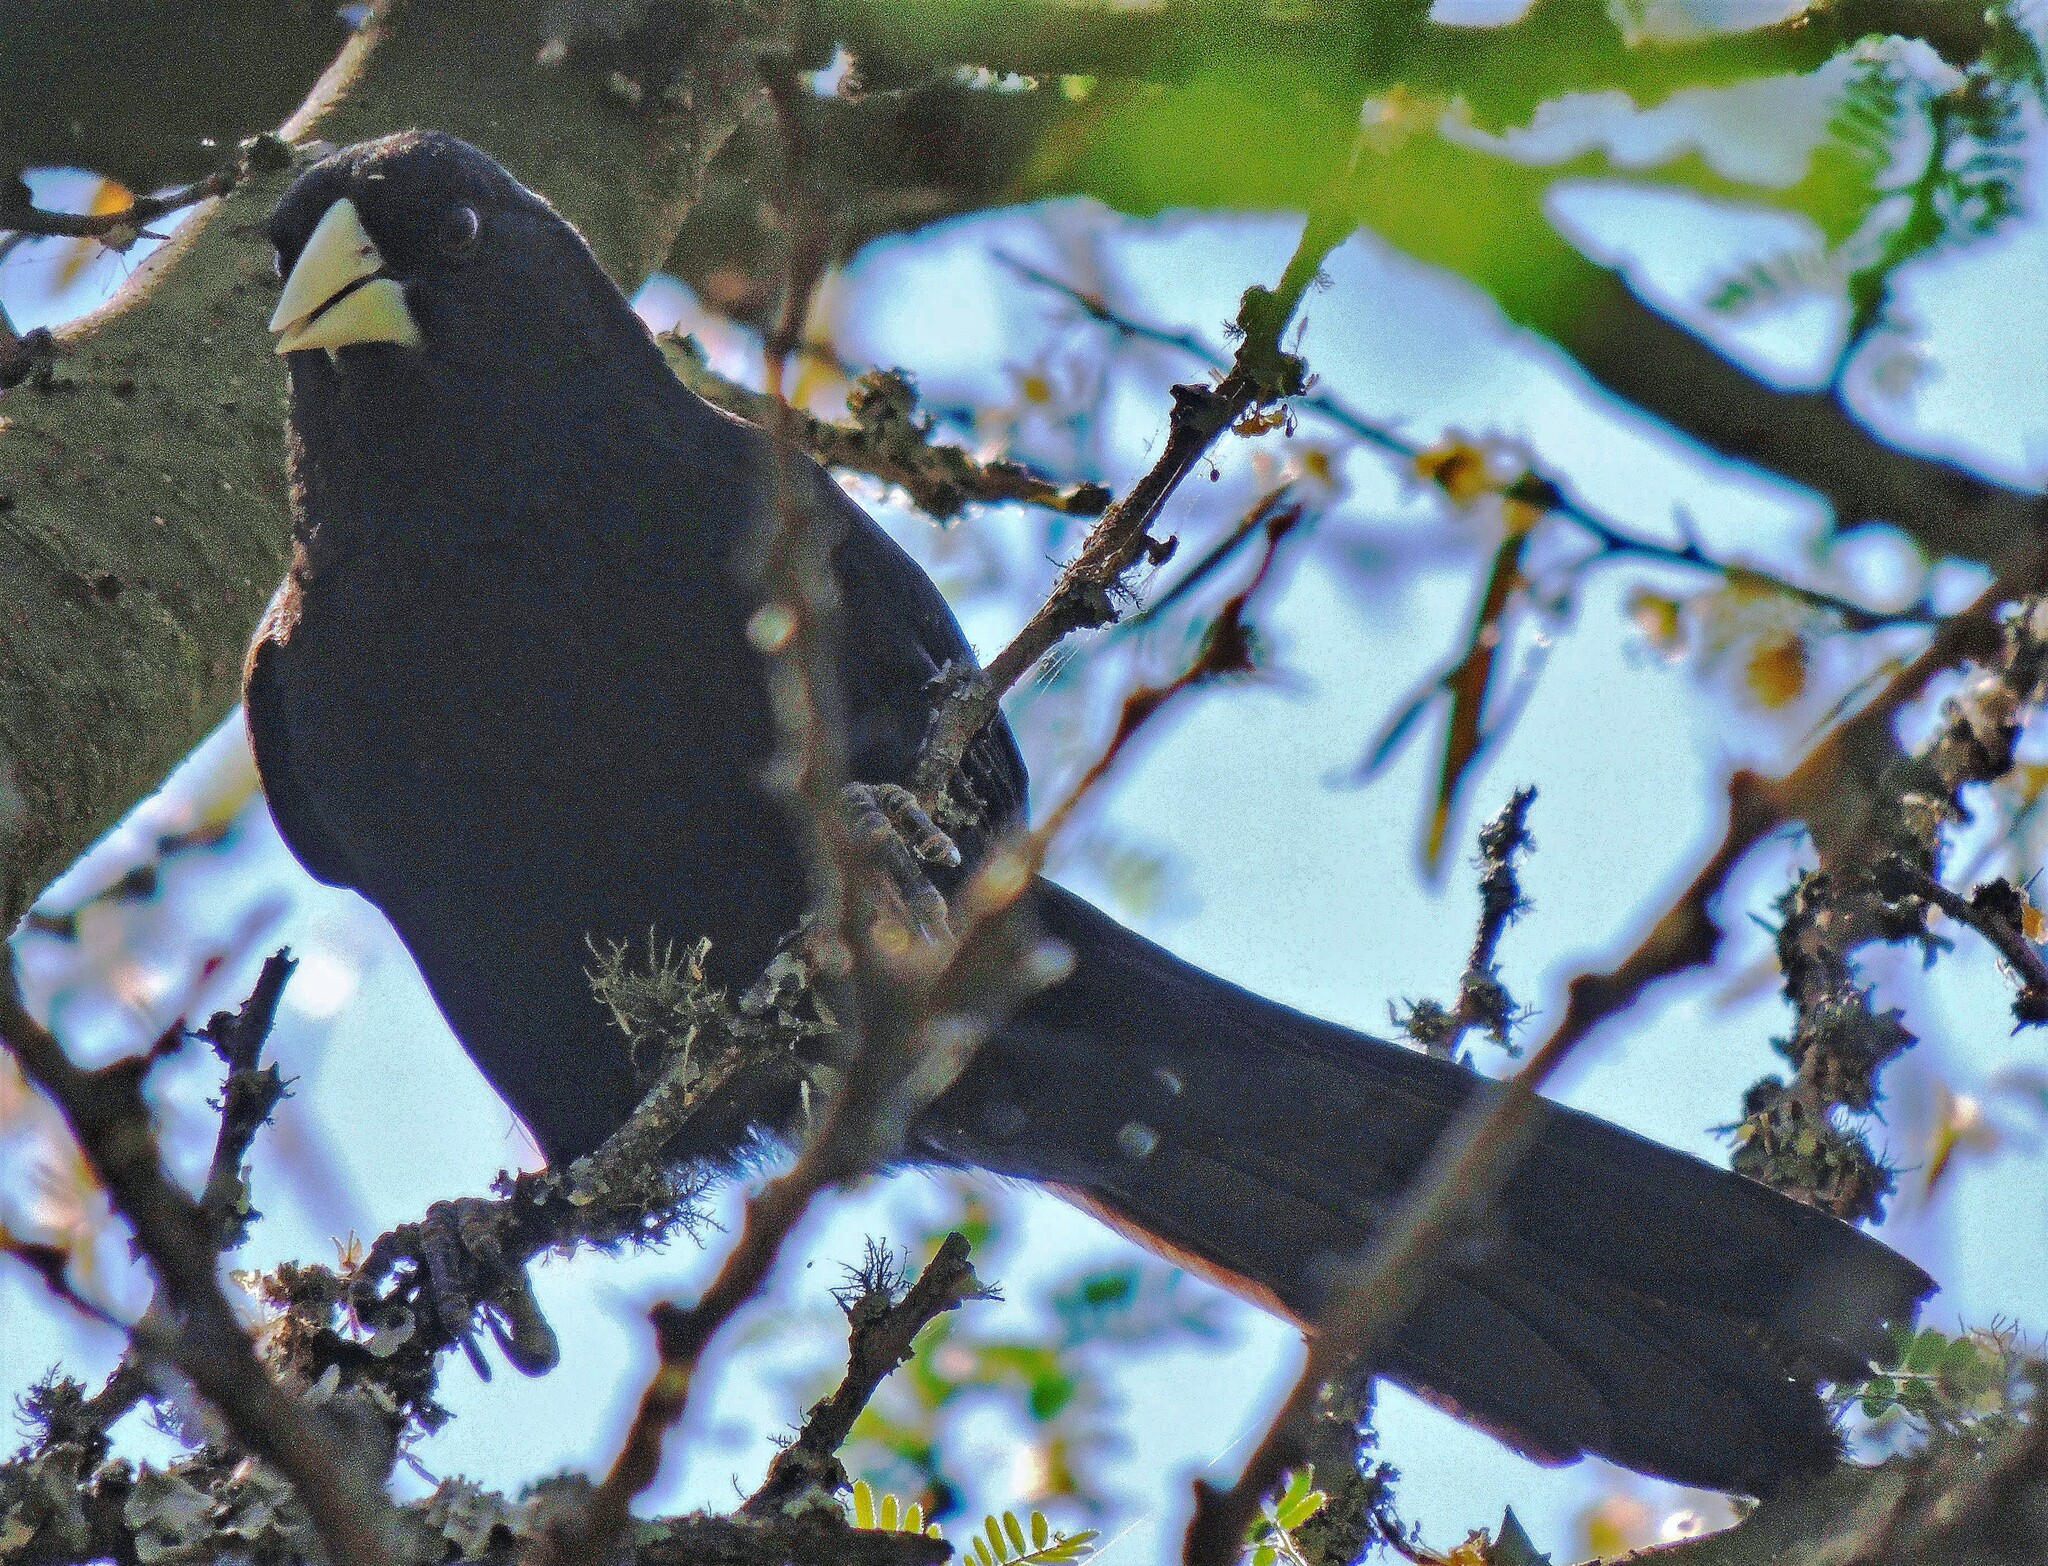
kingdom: Animalia
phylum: Chordata
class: Aves
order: Passeriformes
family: Icteridae
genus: Cacicus
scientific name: Cacicus solitarius
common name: Solitary cacique
